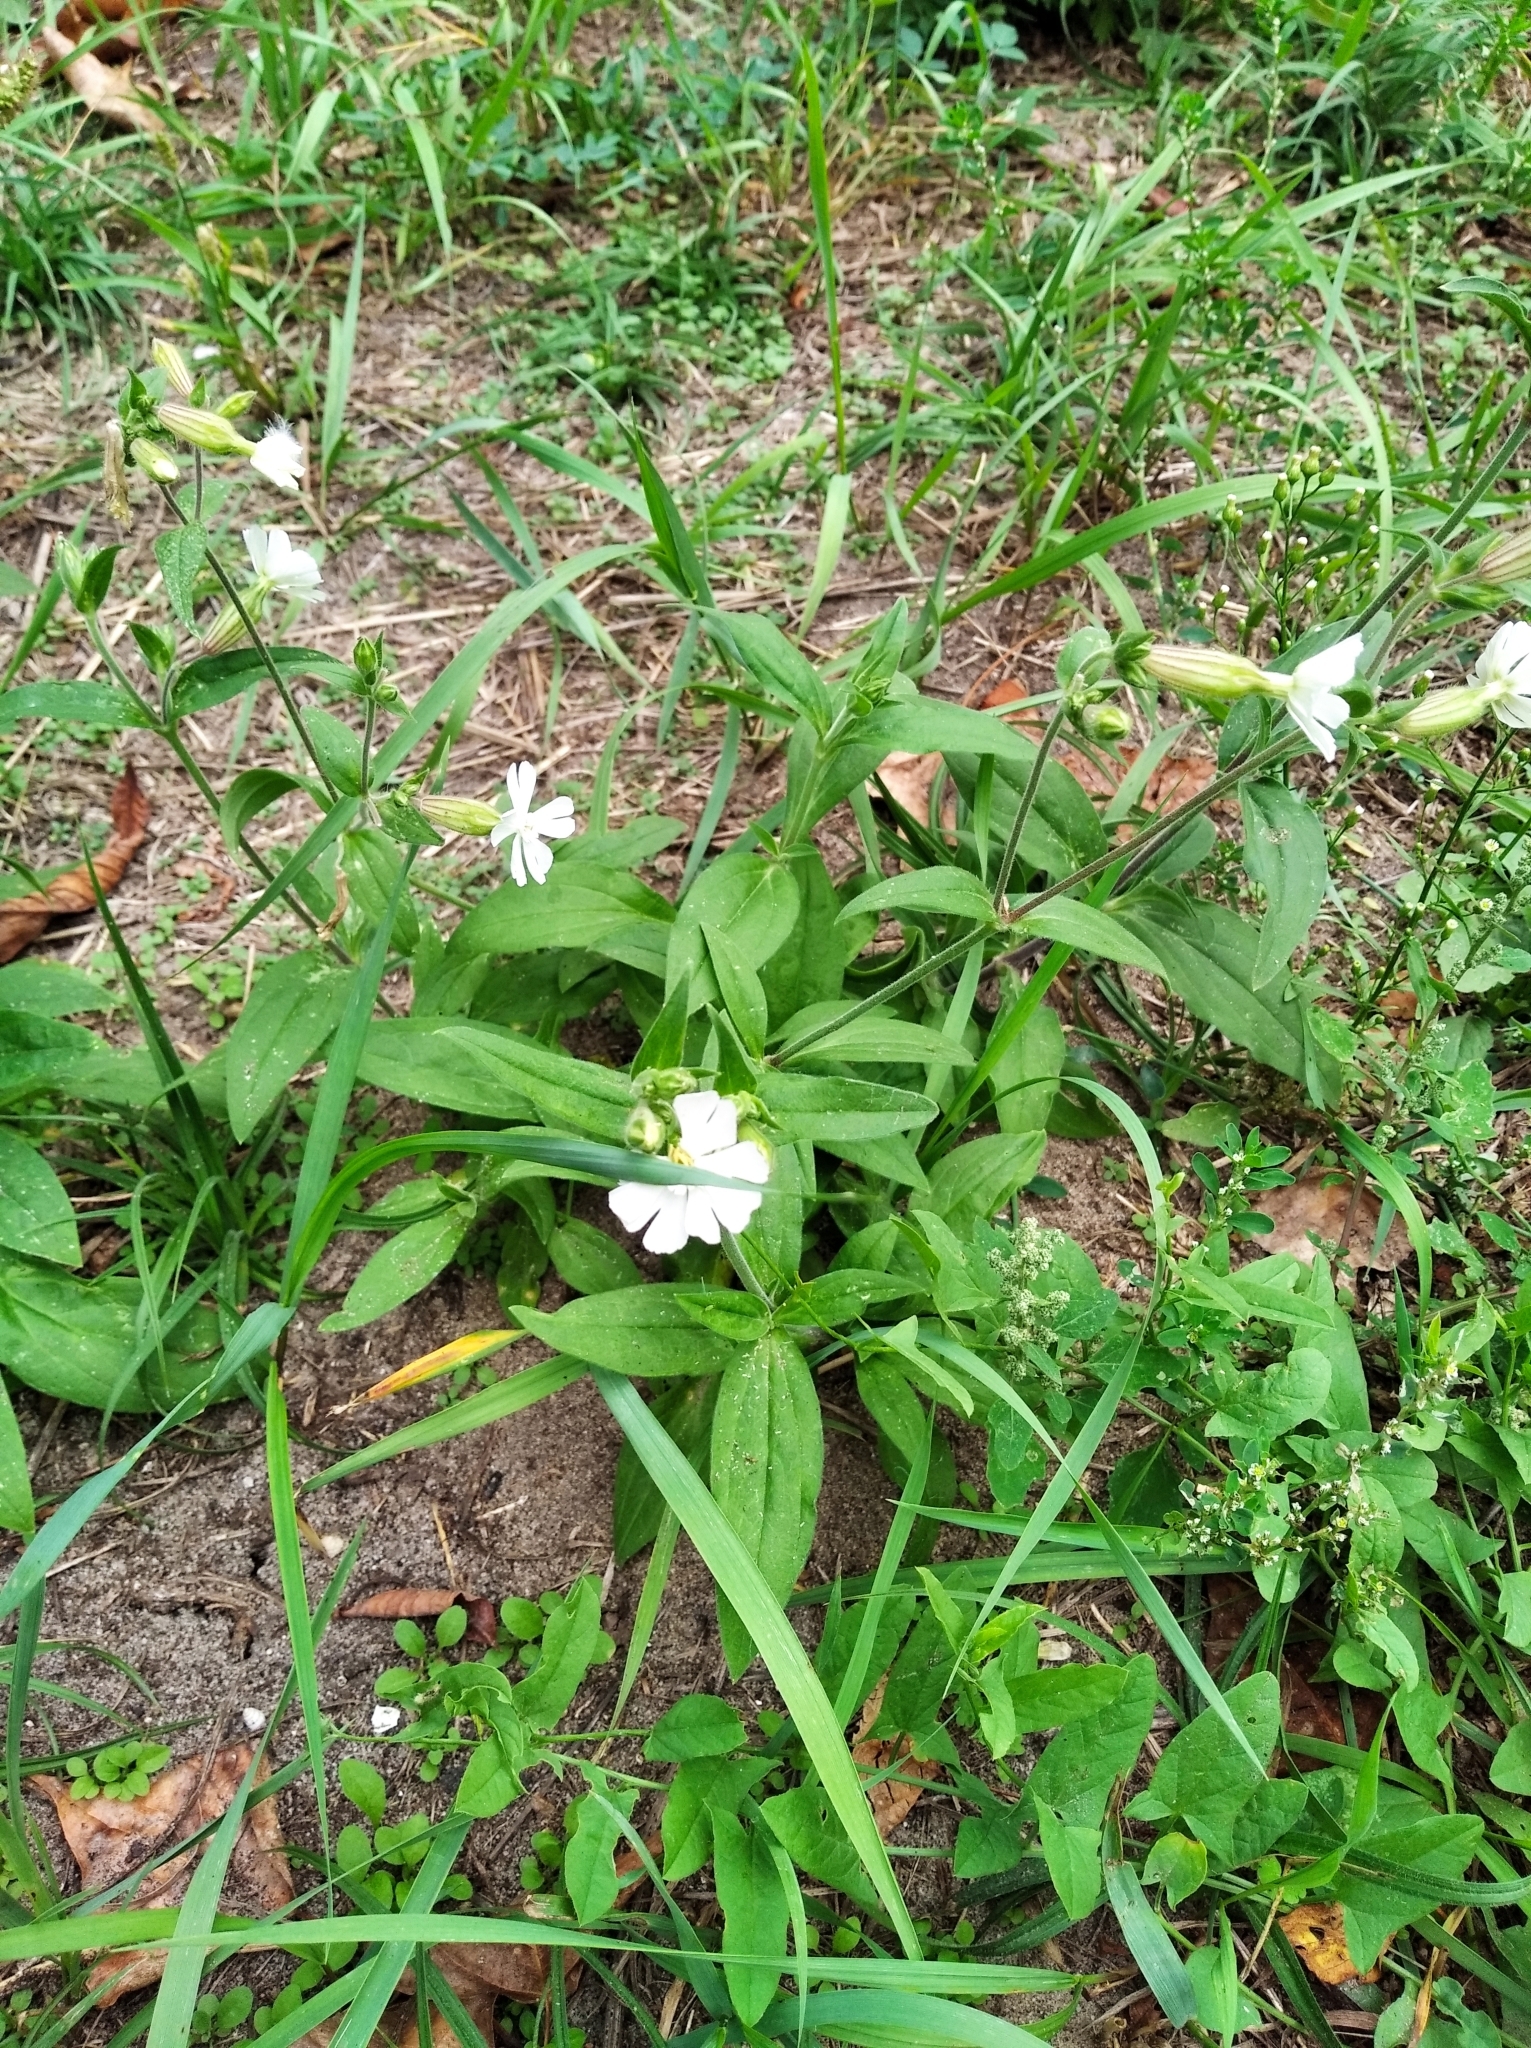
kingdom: Plantae
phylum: Tracheophyta
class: Magnoliopsida
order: Caryophyllales
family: Caryophyllaceae
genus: Silene
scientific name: Silene latifolia
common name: White campion
